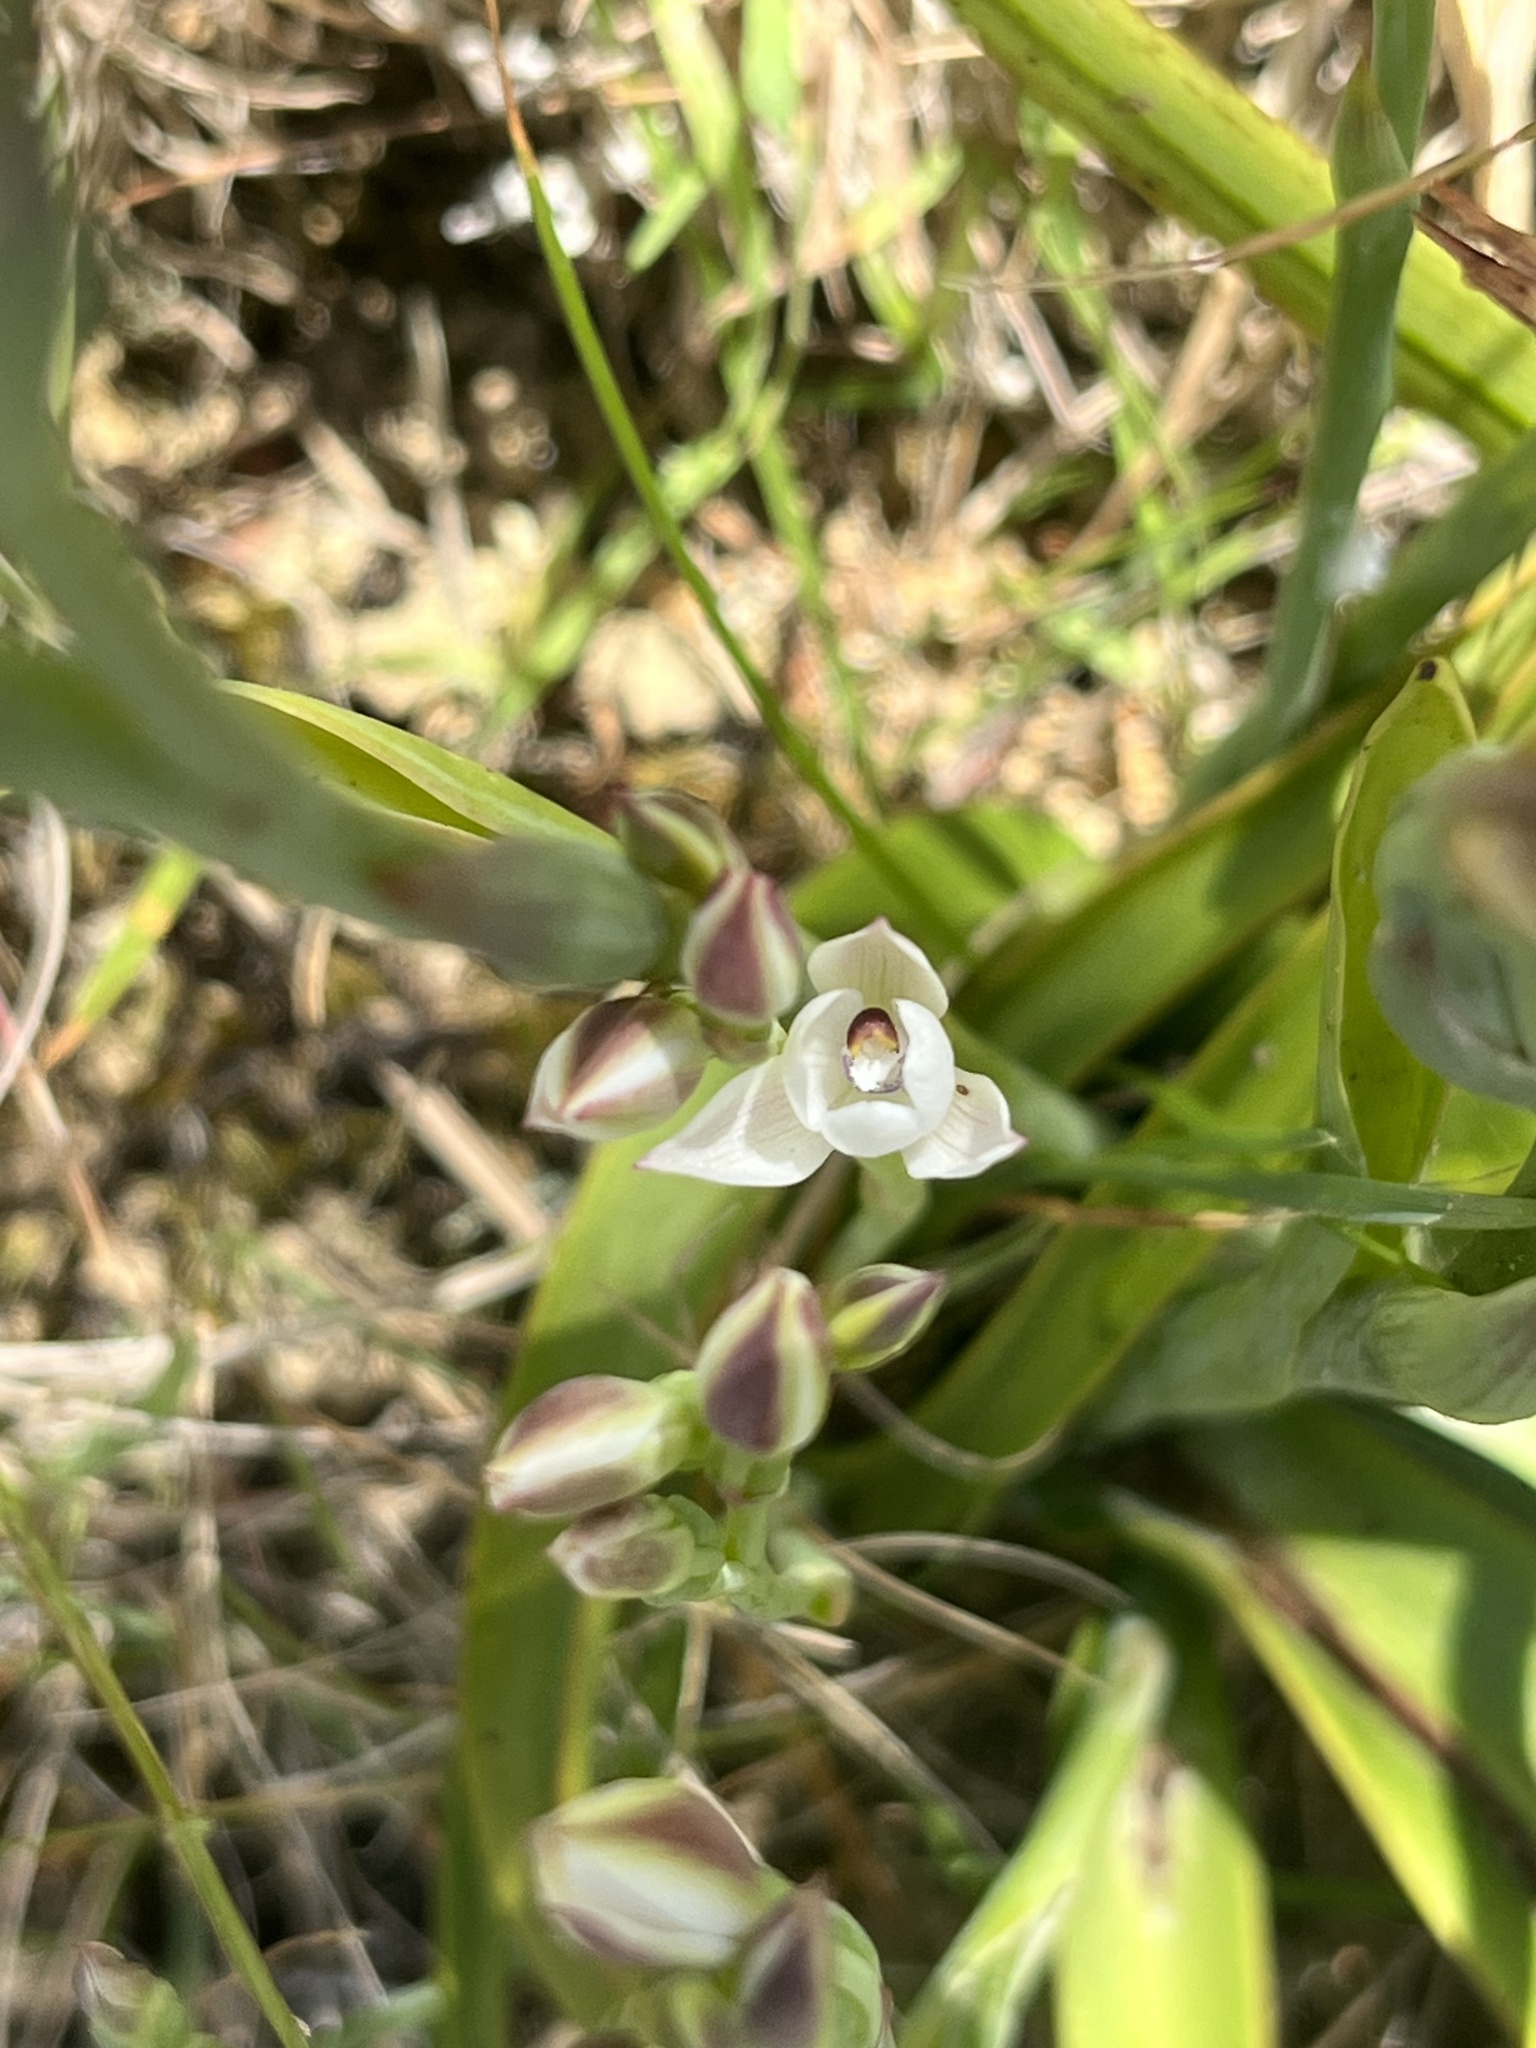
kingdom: Plantae
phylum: Tracheophyta
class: Liliopsida
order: Asparagales
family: Orchidaceae
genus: Thelymitra
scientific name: Thelymitra longifolia
